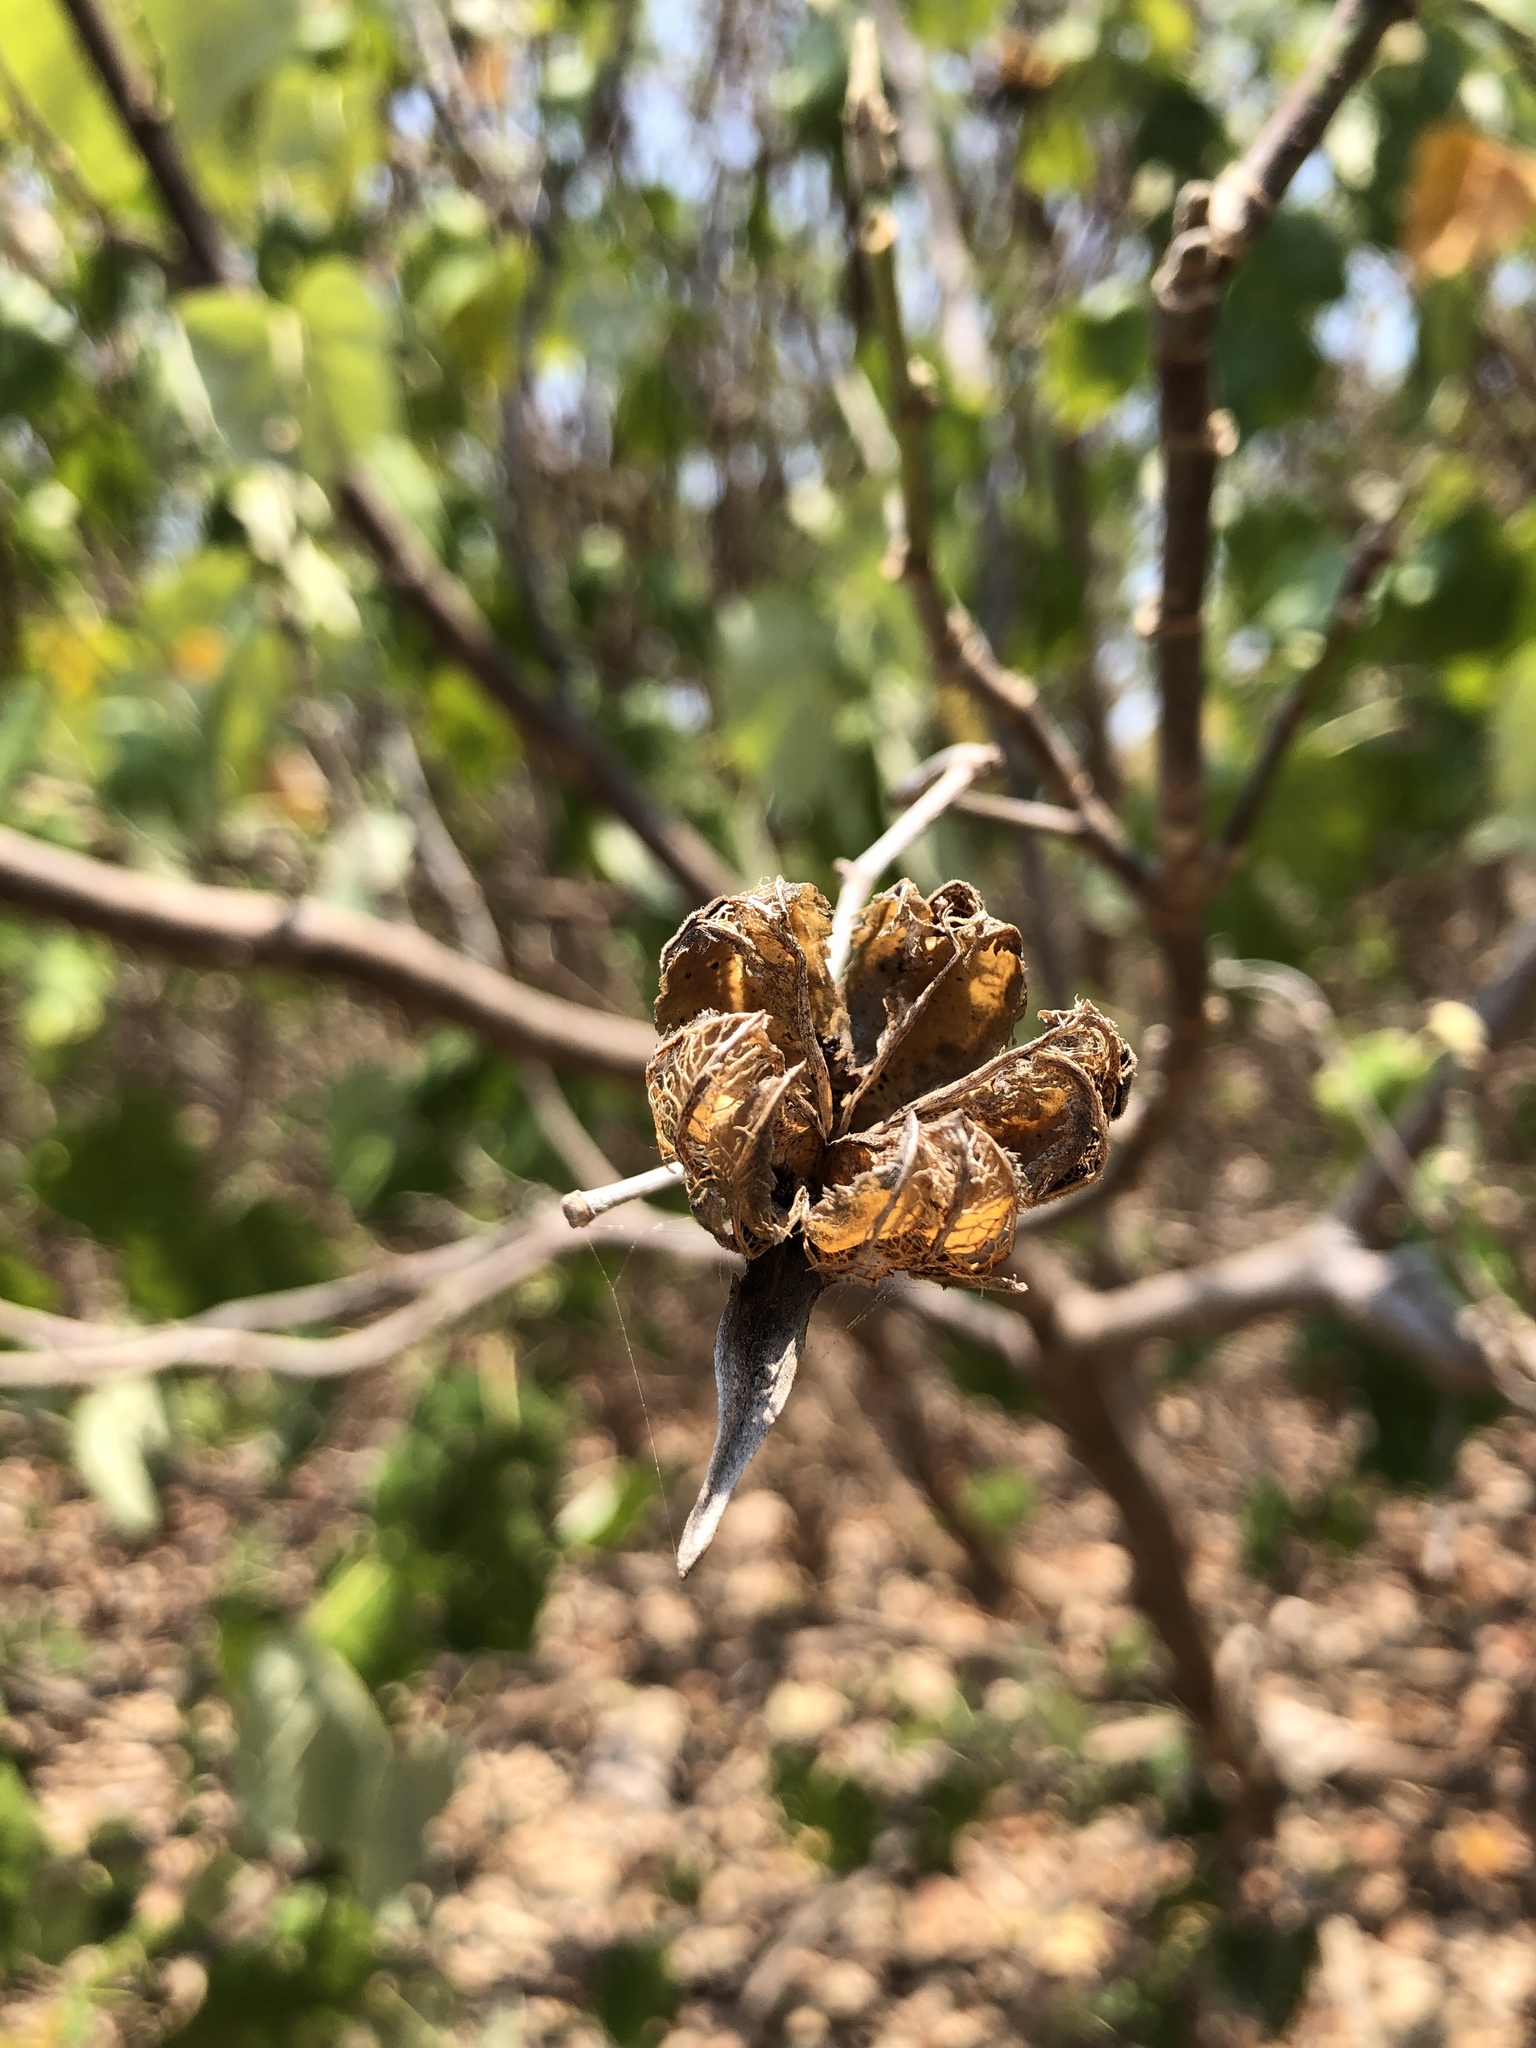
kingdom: Plantae
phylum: Tracheophyta
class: Magnoliopsida
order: Malvales
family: Malvaceae
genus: Talipariti
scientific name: Talipariti tiliaceum
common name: Sea hibiscus
